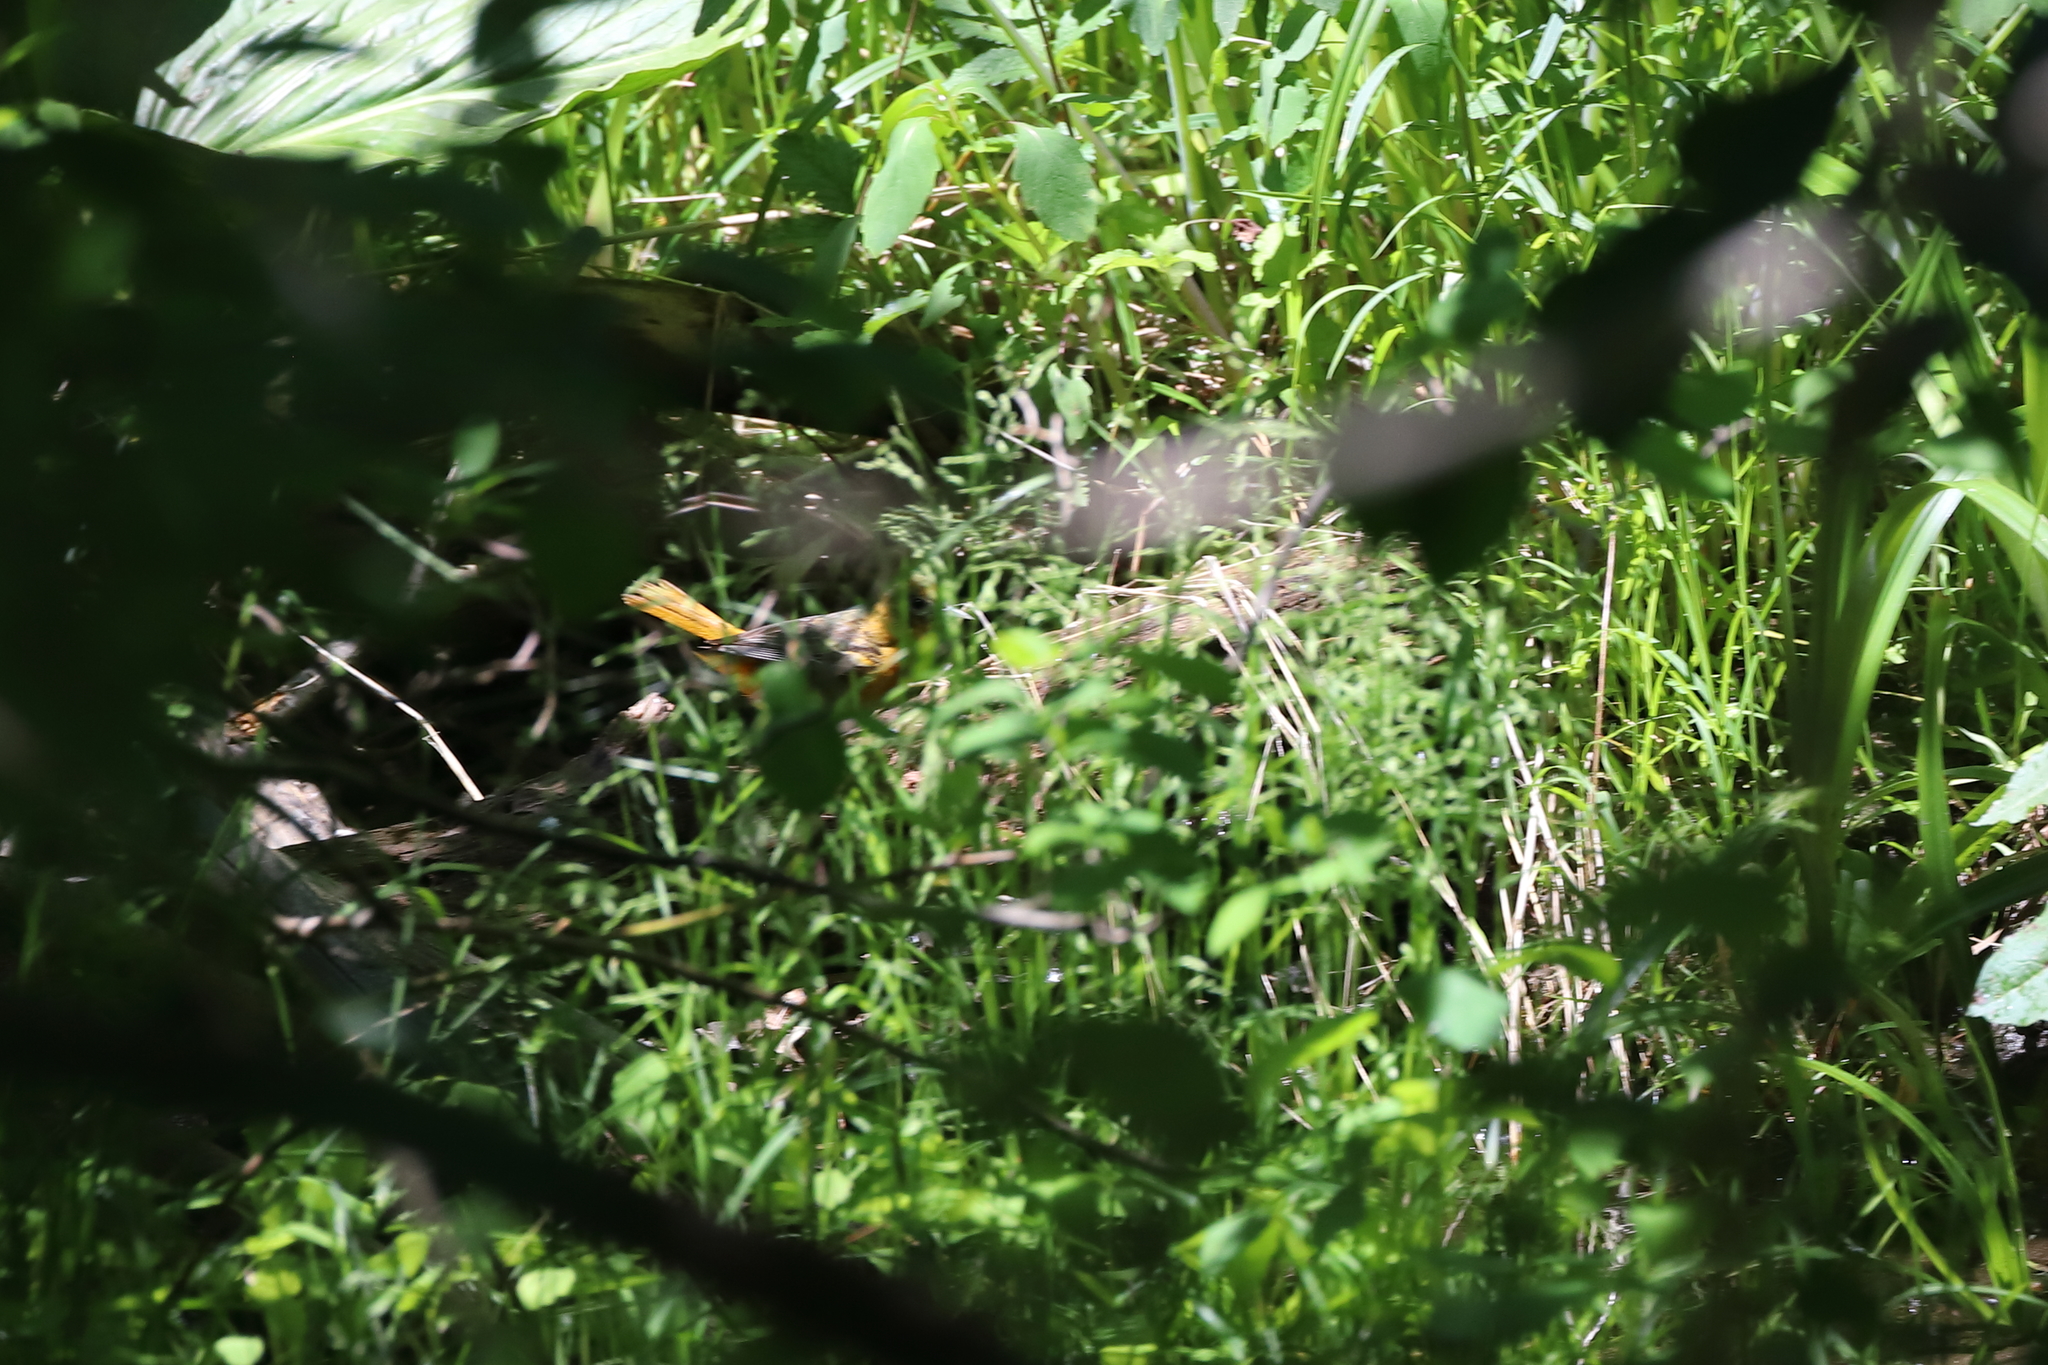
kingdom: Animalia
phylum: Chordata
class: Aves
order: Passeriformes
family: Icteridae
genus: Icterus
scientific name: Icterus galbula
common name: Baltimore oriole
